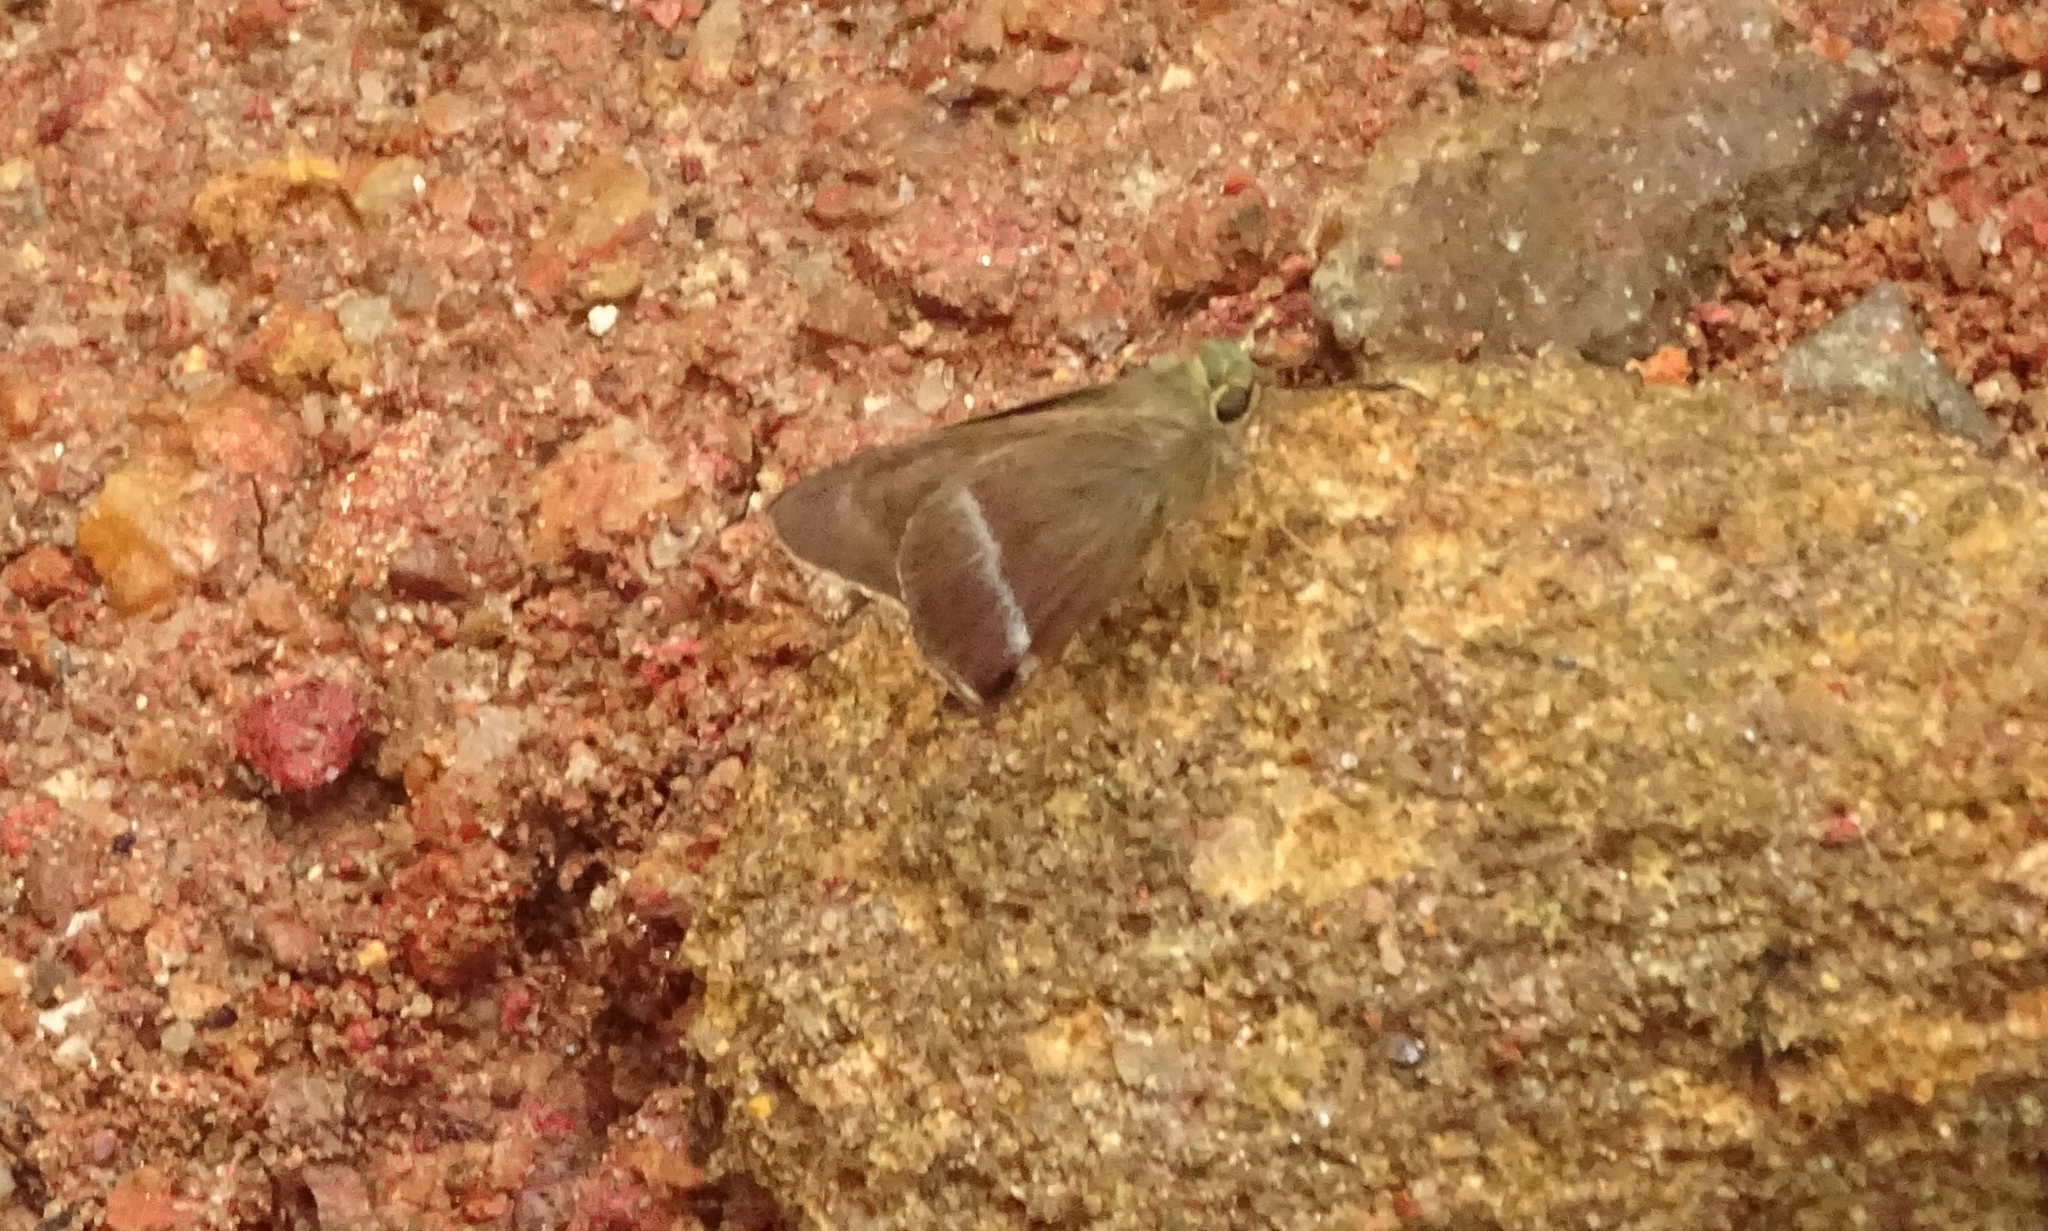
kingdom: Animalia
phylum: Arthropoda
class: Insecta
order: Lepidoptera
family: Hesperiidae
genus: Hasora
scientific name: Hasora chromus
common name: Common banded awl
